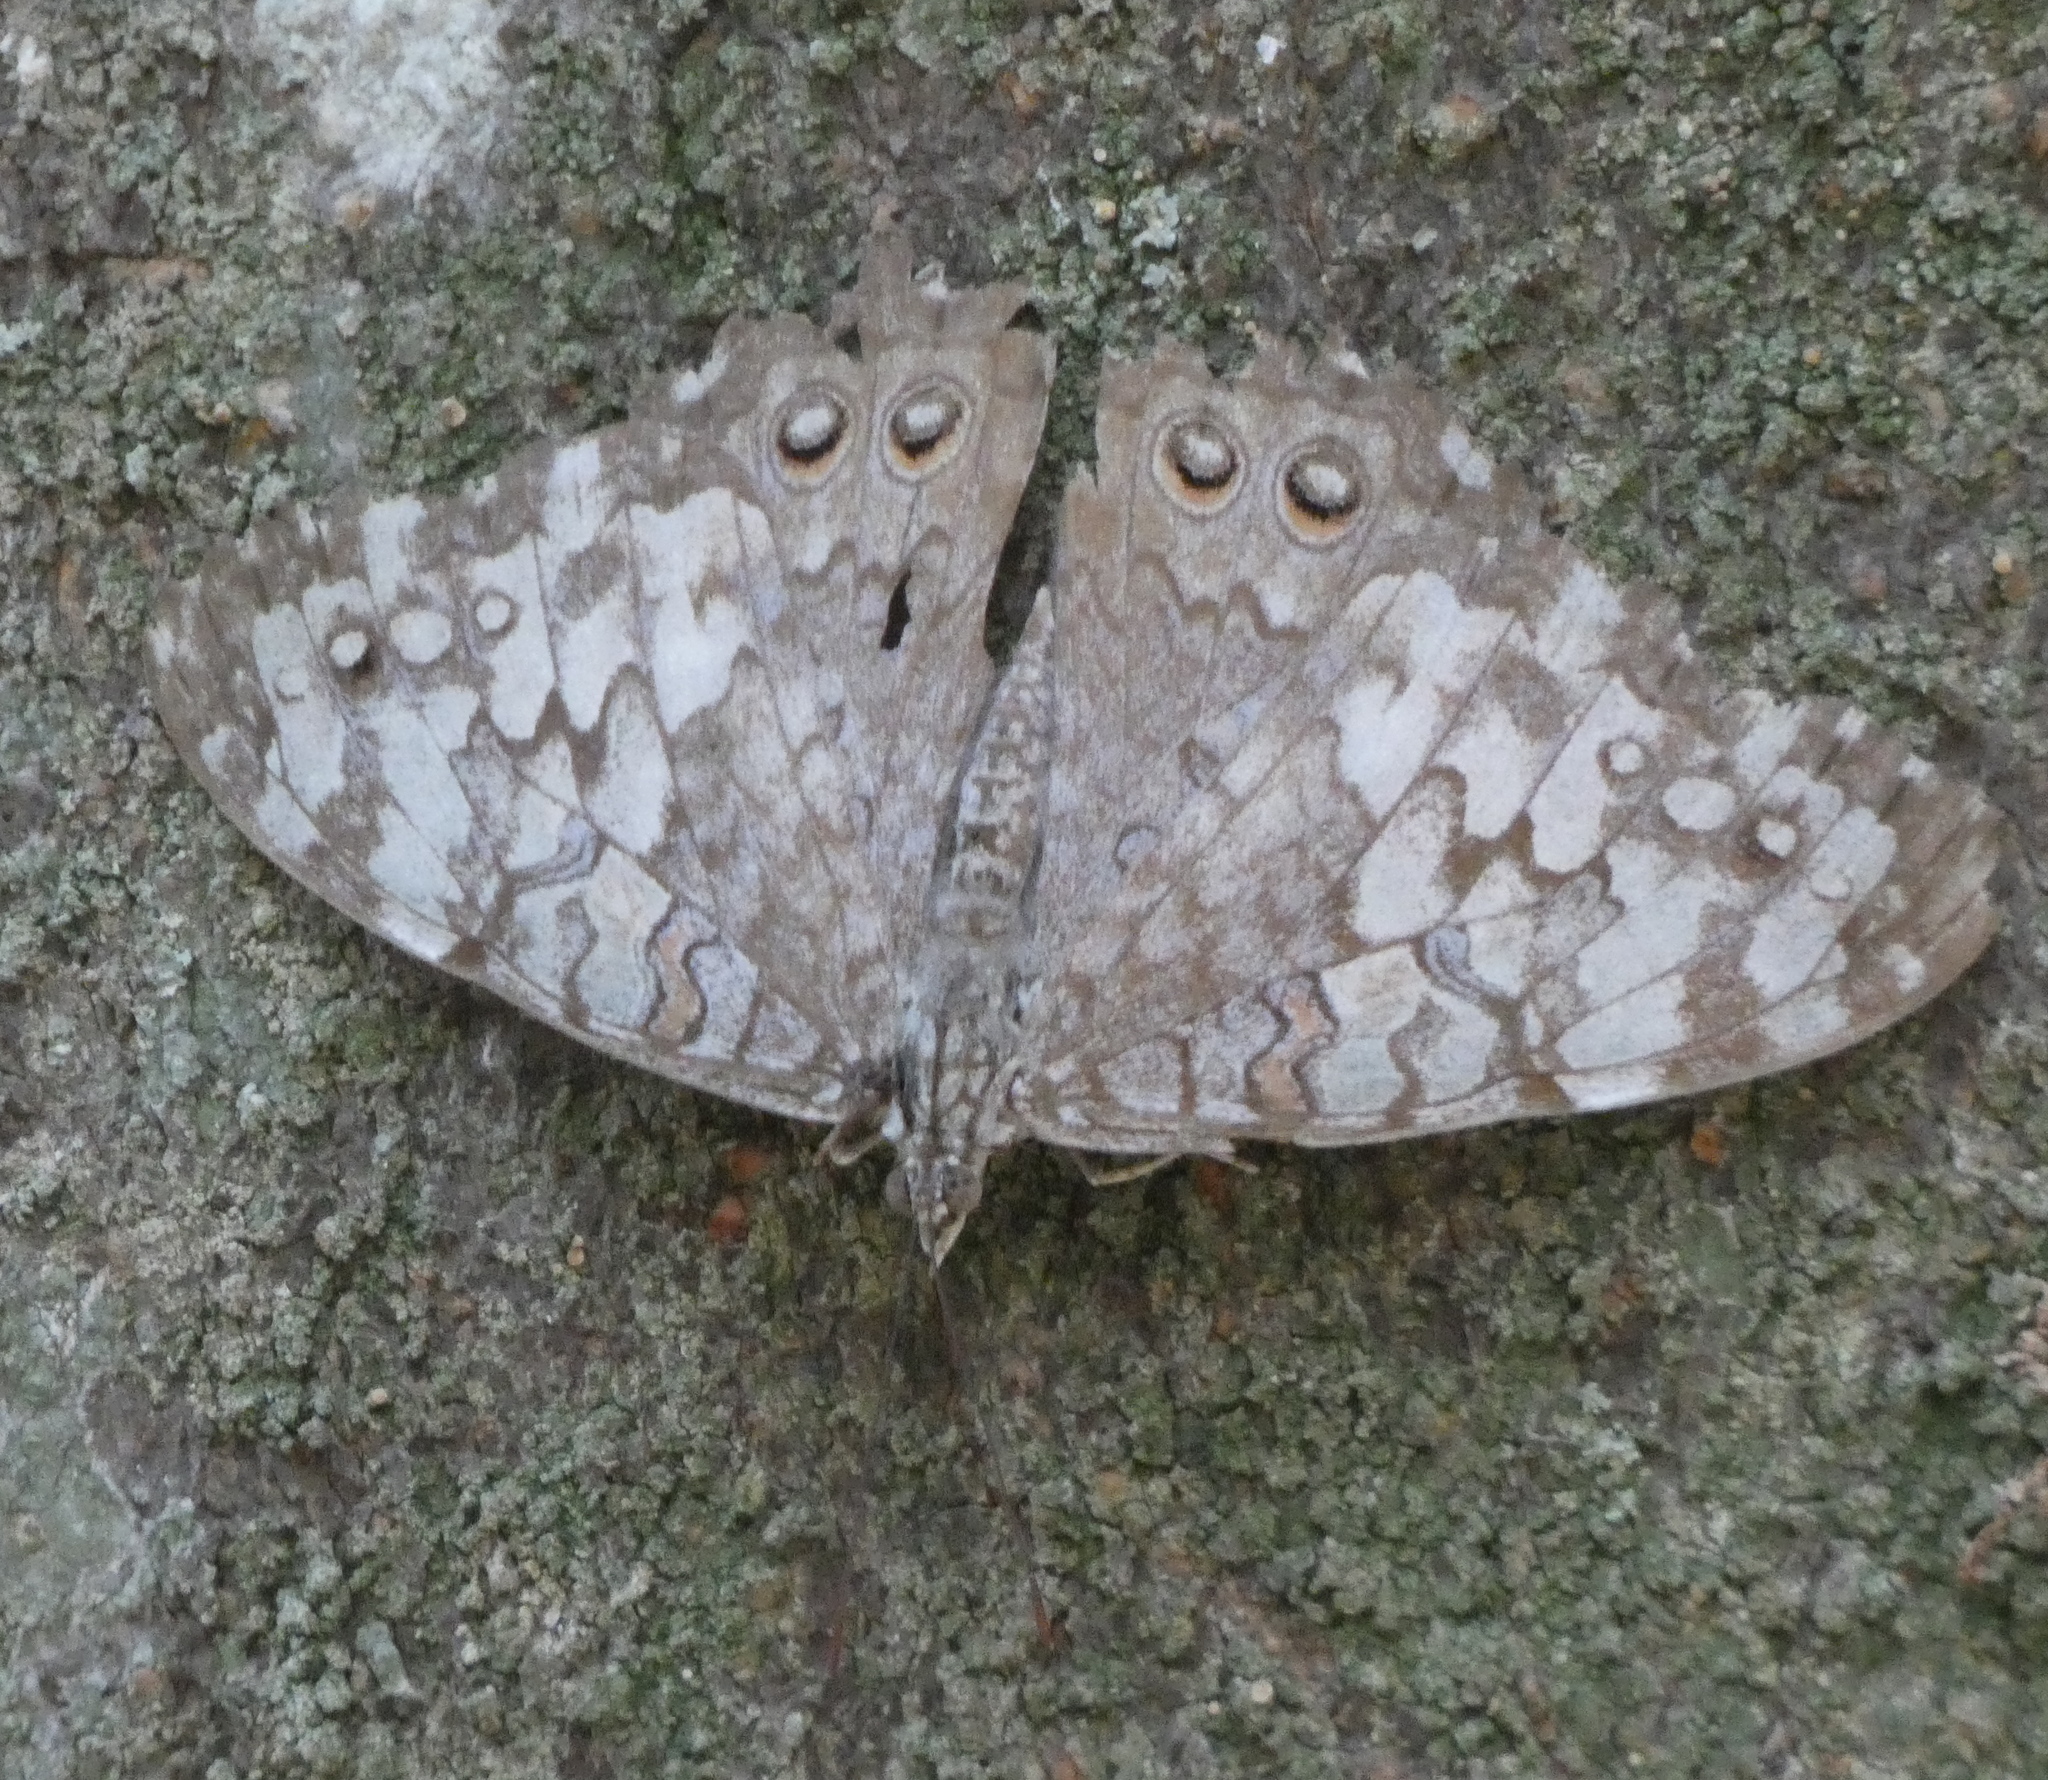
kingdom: Animalia
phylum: Arthropoda
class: Insecta
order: Lepidoptera
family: Nymphalidae
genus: Hamadryas
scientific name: Hamadryas februa
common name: Gray cracker
